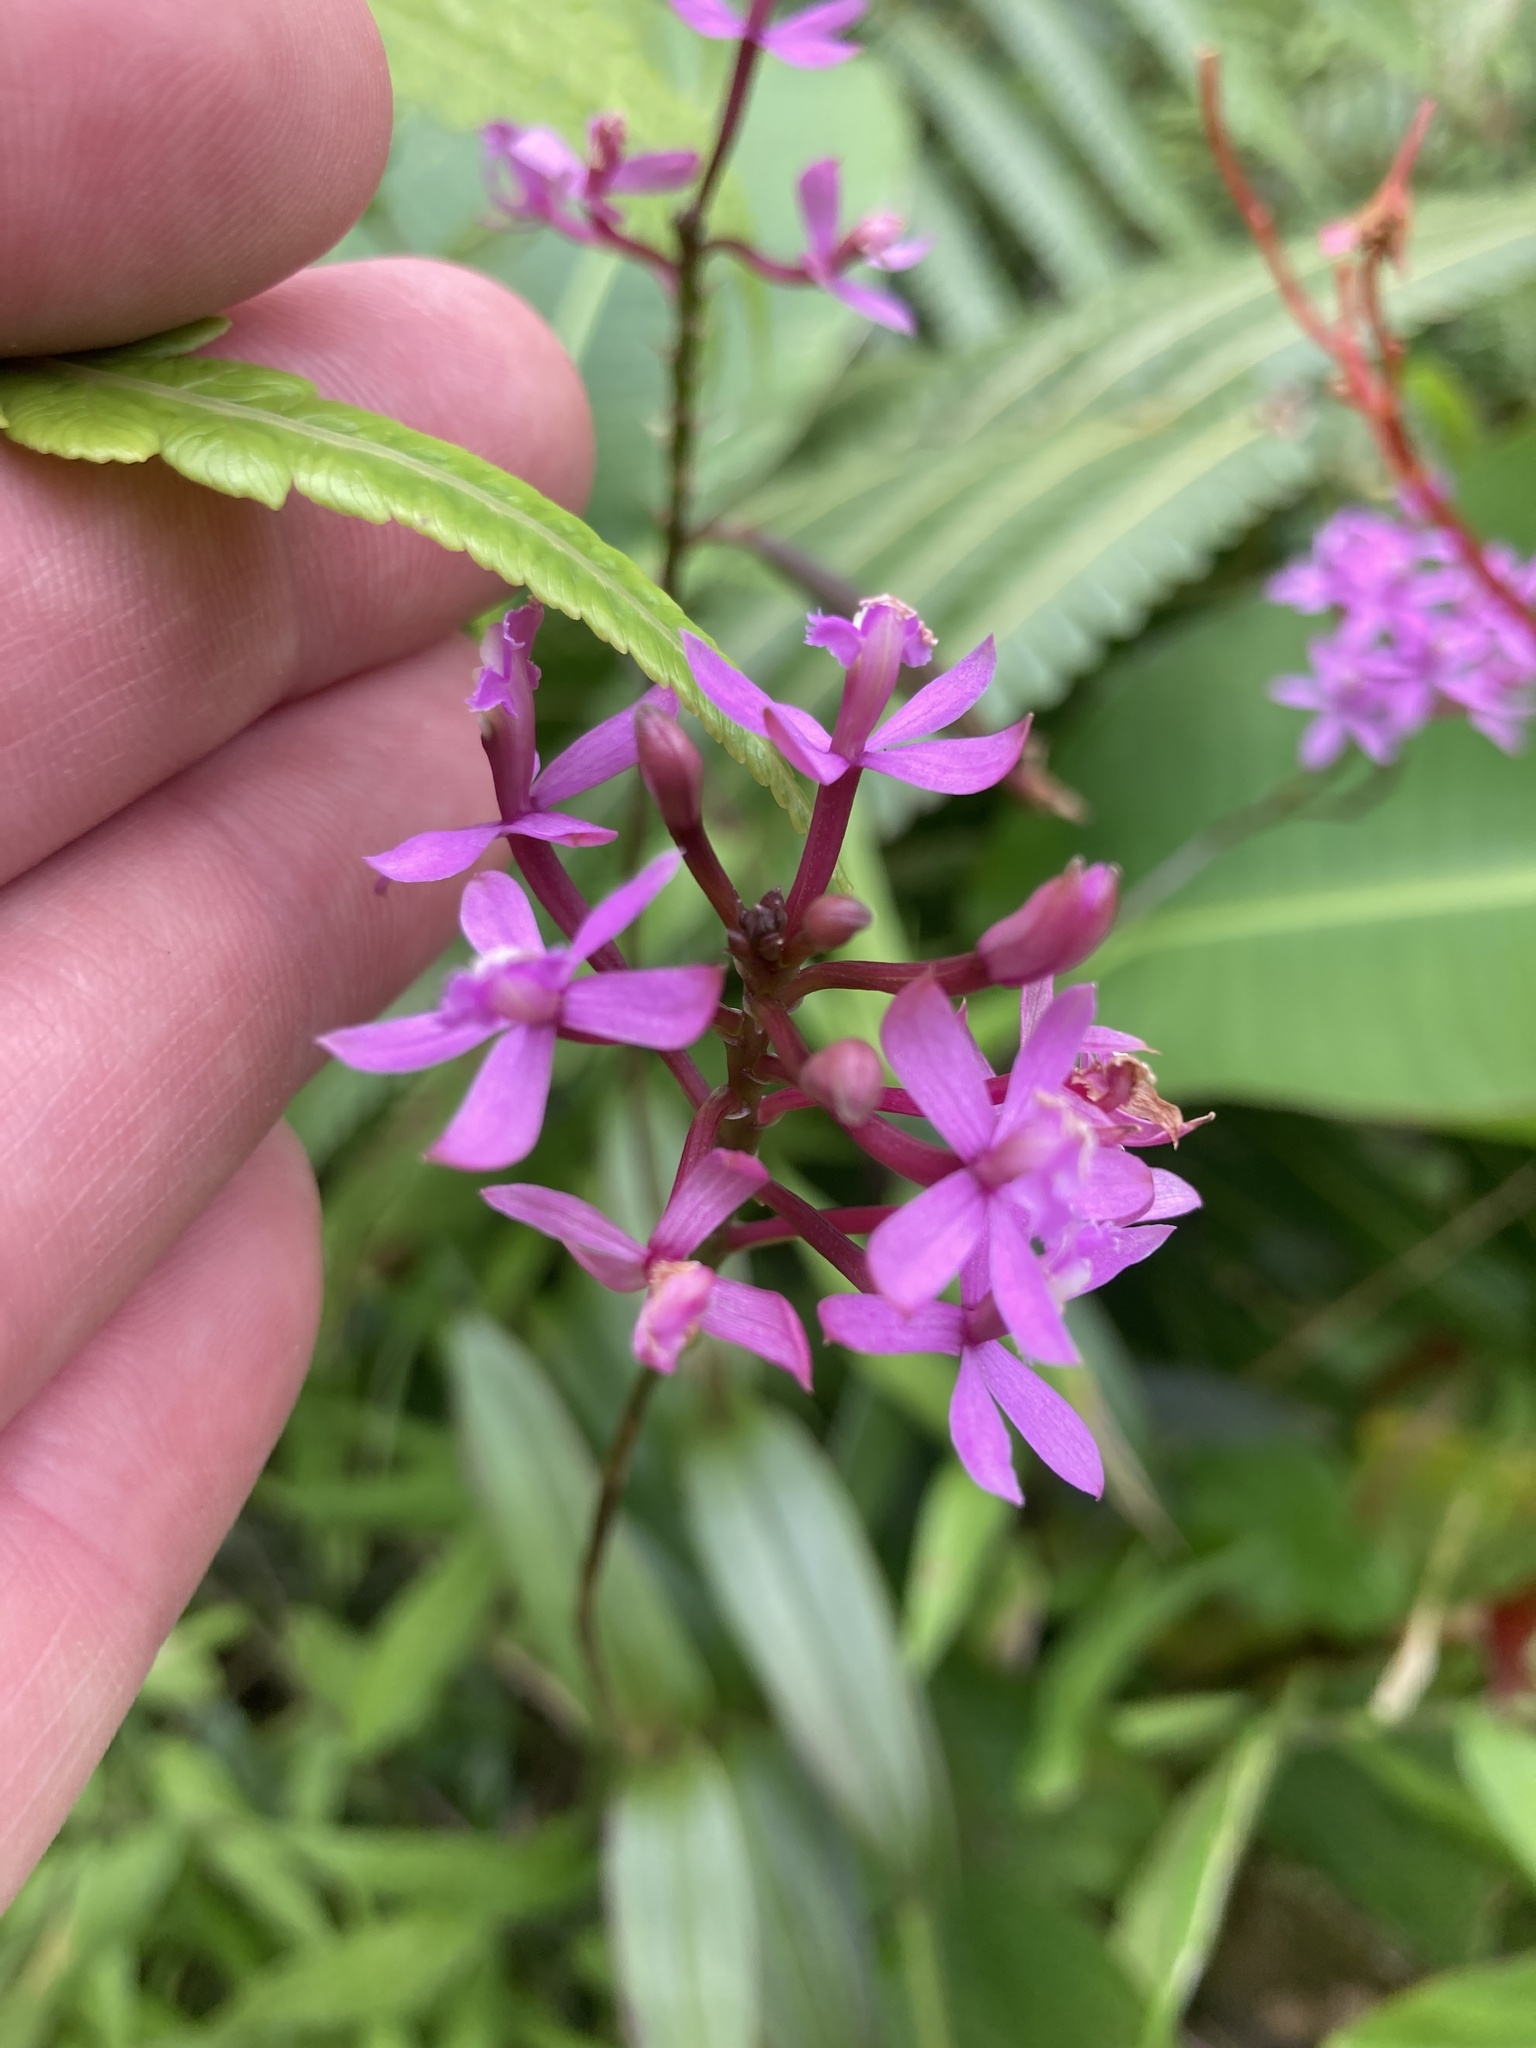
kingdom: Plantae
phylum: Tracheophyta
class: Liliopsida
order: Asparagales
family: Orchidaceae
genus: Epidendrum
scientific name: Epidendrum secundum
